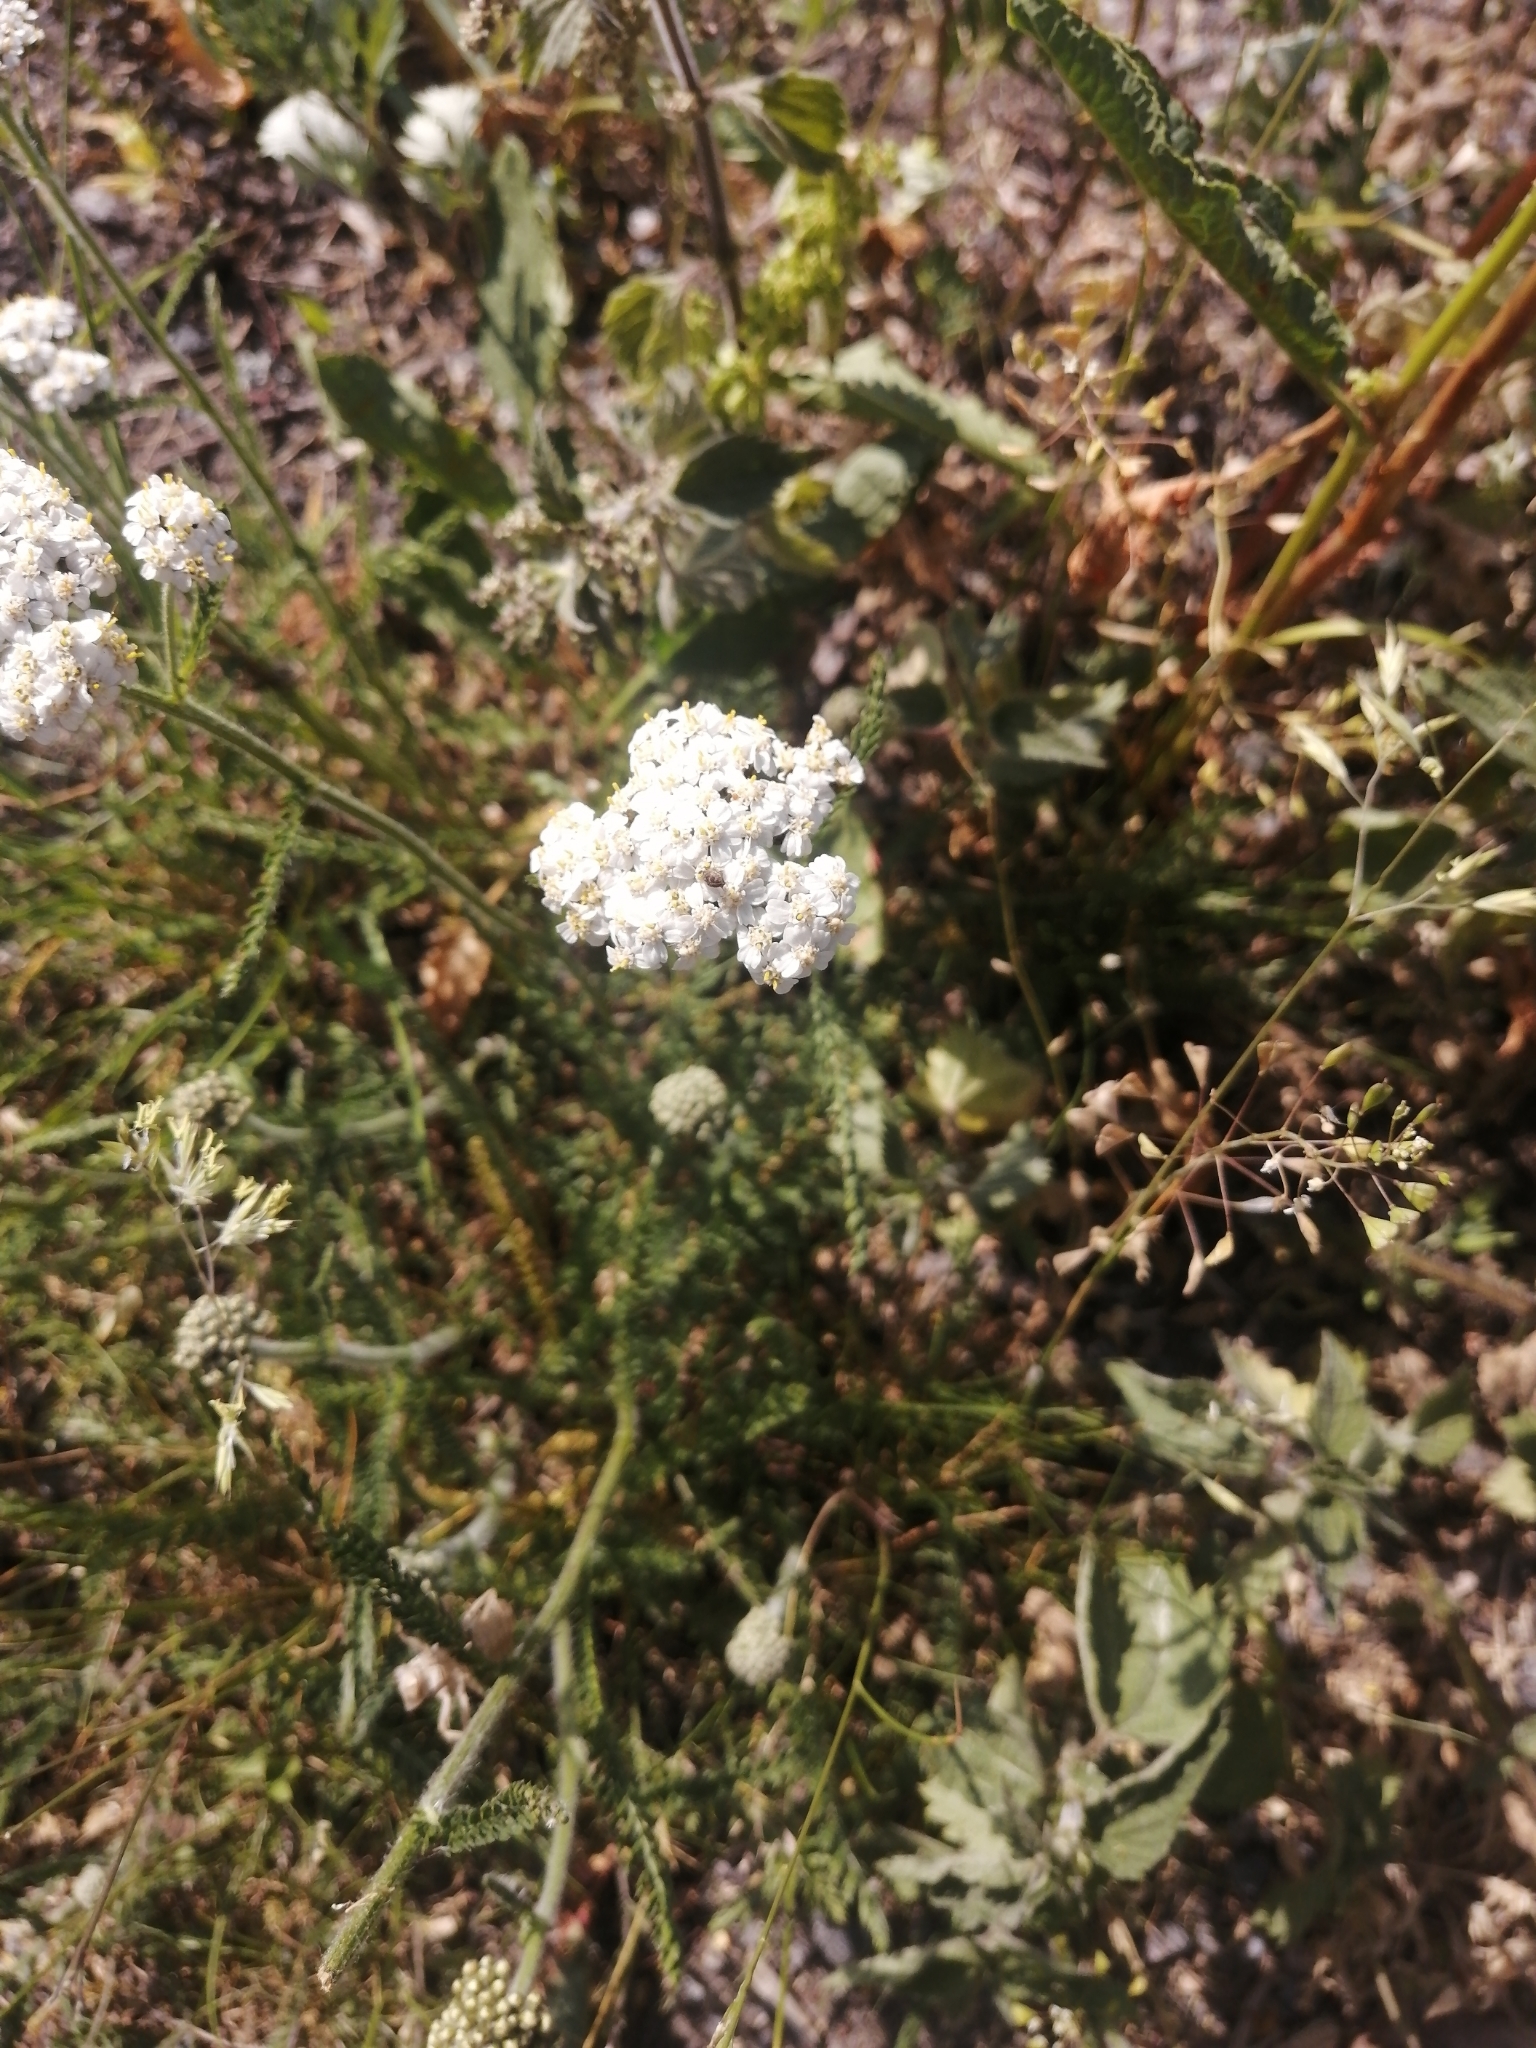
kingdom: Plantae
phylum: Tracheophyta
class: Magnoliopsida
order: Asterales
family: Asteraceae
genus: Achillea
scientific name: Achillea millefolium
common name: Yarrow
